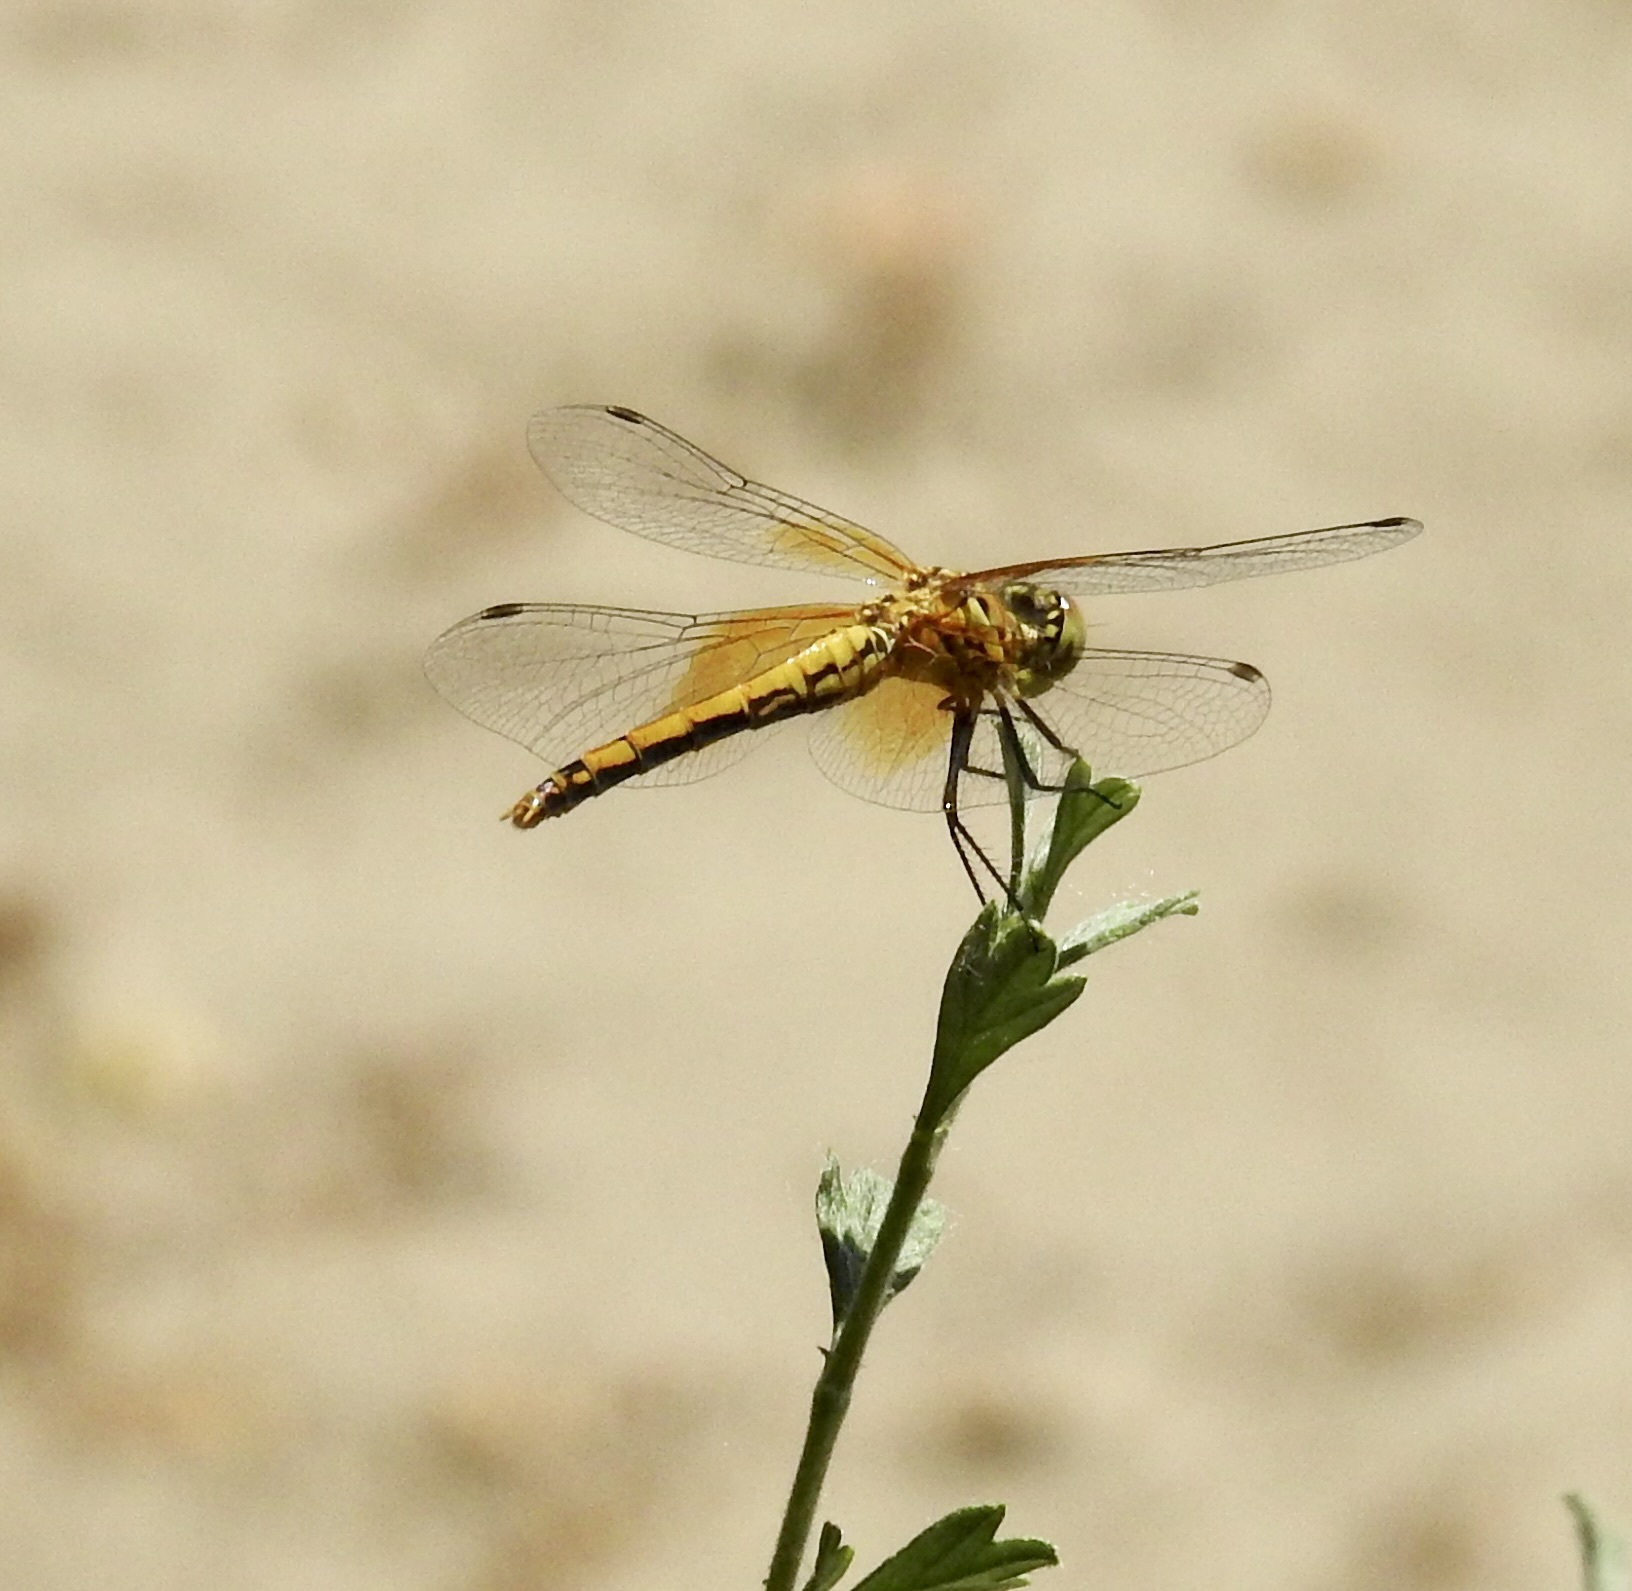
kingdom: Animalia
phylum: Arthropoda
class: Insecta
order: Odonata
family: Libellulidae
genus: Sympetrum
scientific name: Sympetrum semicinctum
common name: Band-winged meadowhawk
